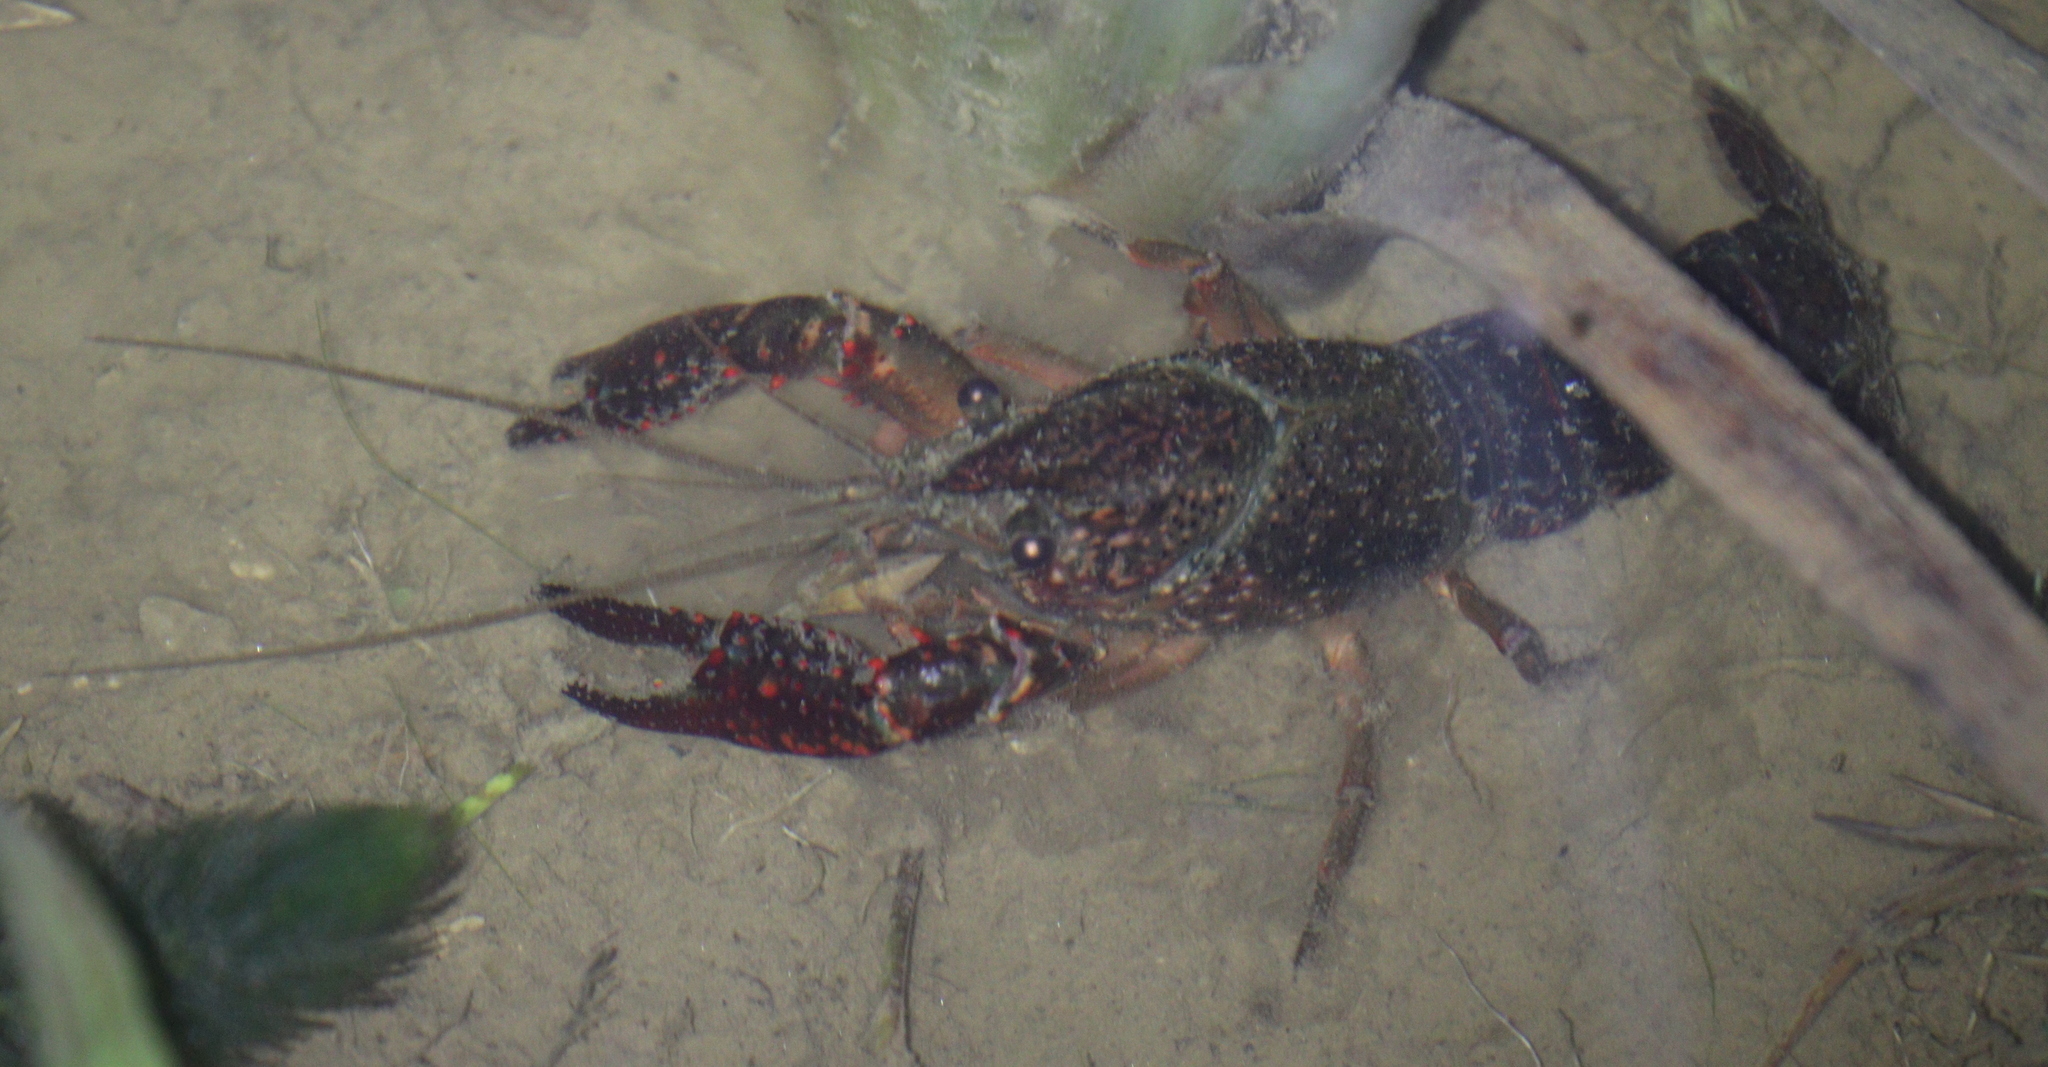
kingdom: Animalia
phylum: Arthropoda
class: Malacostraca
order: Decapoda
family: Cambaridae
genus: Procambarus
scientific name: Procambarus clarkii
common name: Red swamp crayfish
